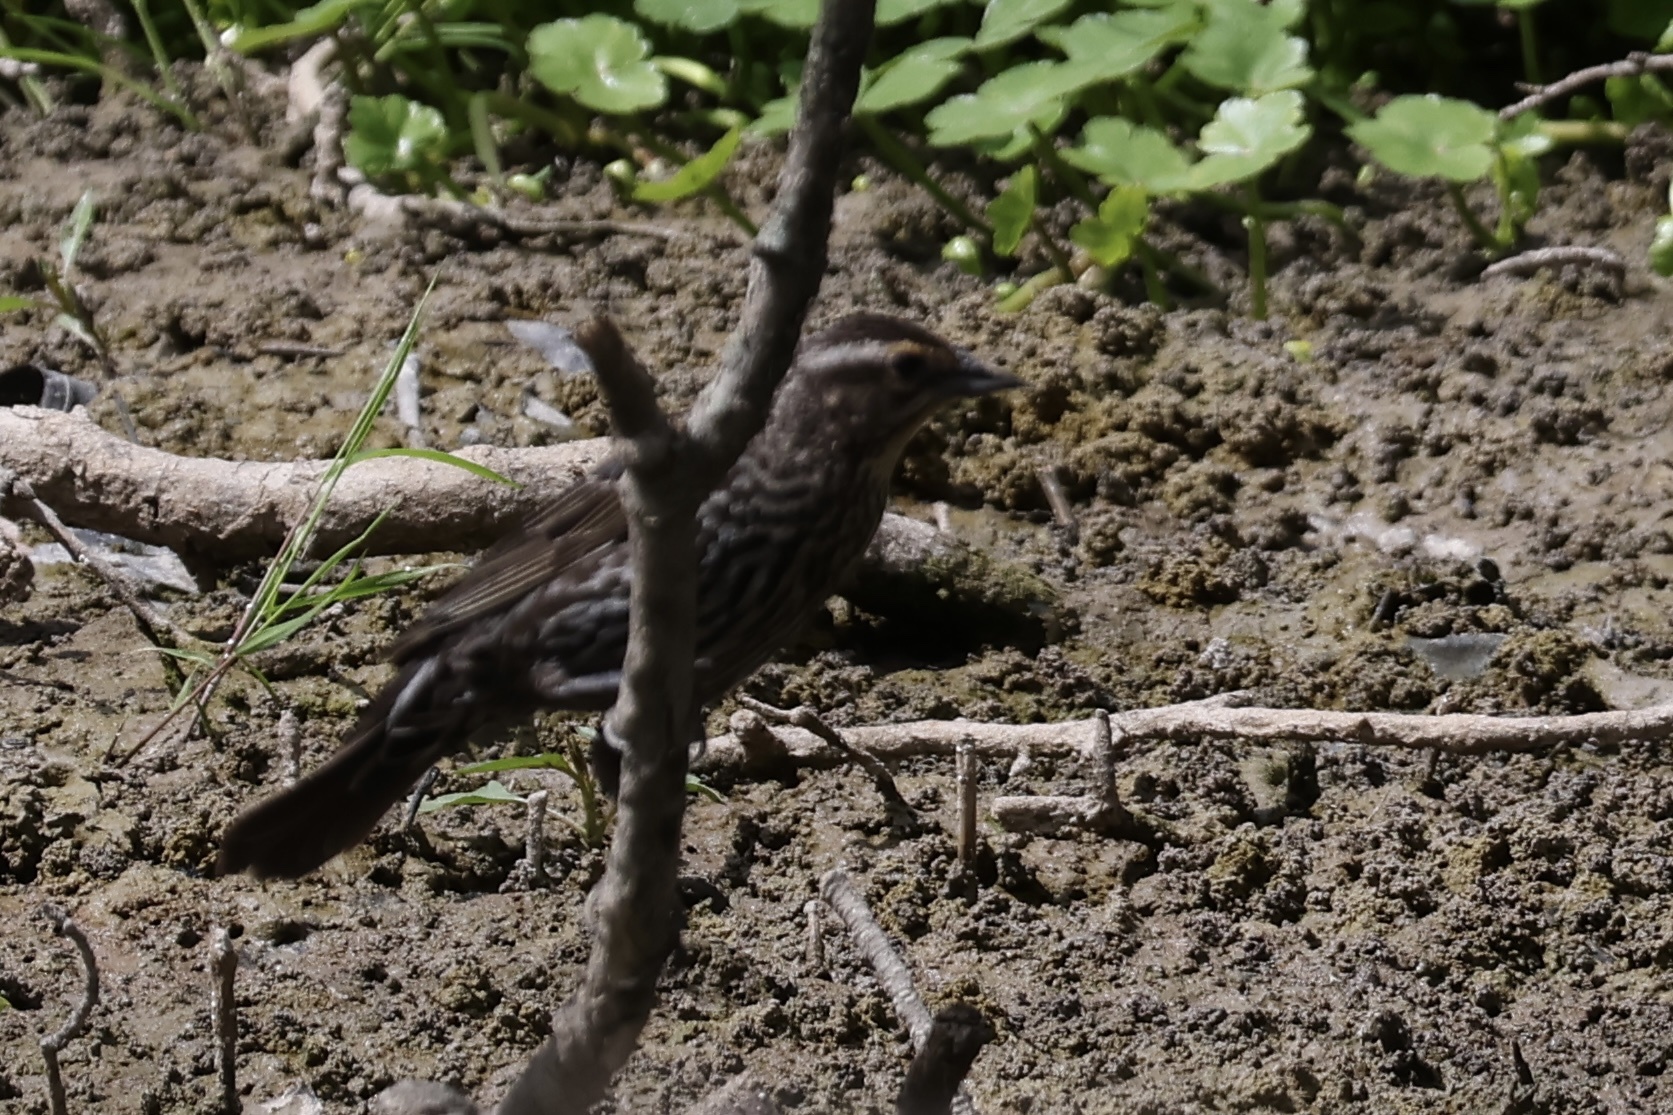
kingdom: Animalia
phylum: Chordata
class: Aves
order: Passeriformes
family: Icteridae
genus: Agelaius
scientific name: Agelaius phoeniceus
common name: Red-winged blackbird
